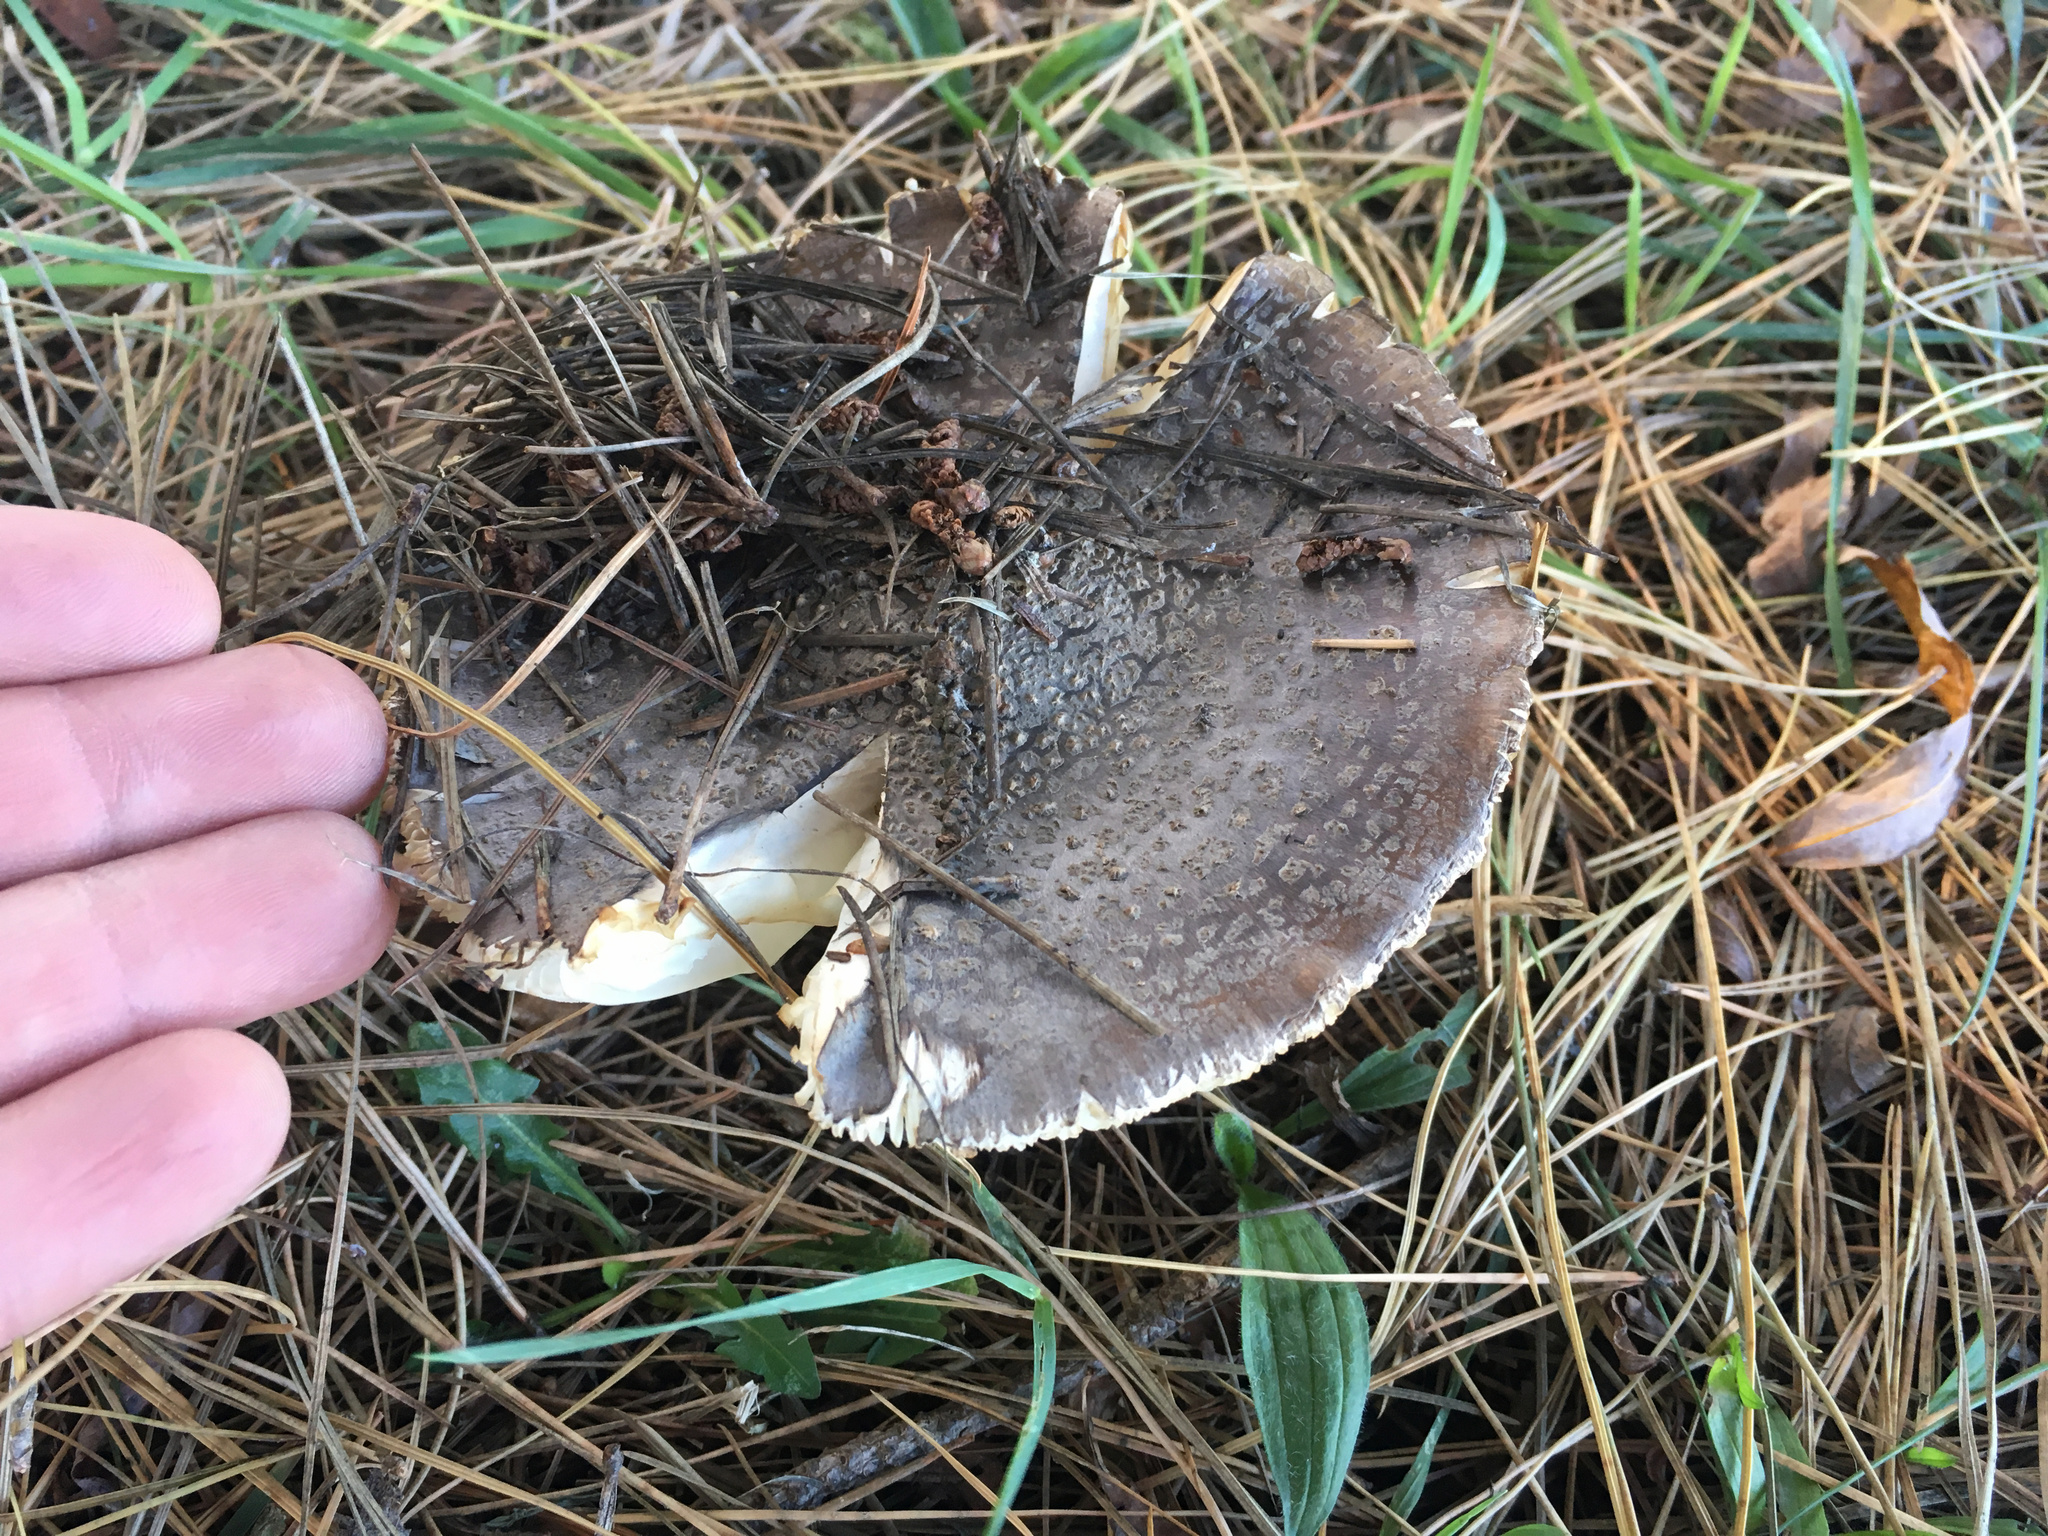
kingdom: Fungi
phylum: Basidiomycota
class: Agaricomycetes
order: Agaricales
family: Amanitaceae
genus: Amanita
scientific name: Amanita excelsa
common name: European false blusher
